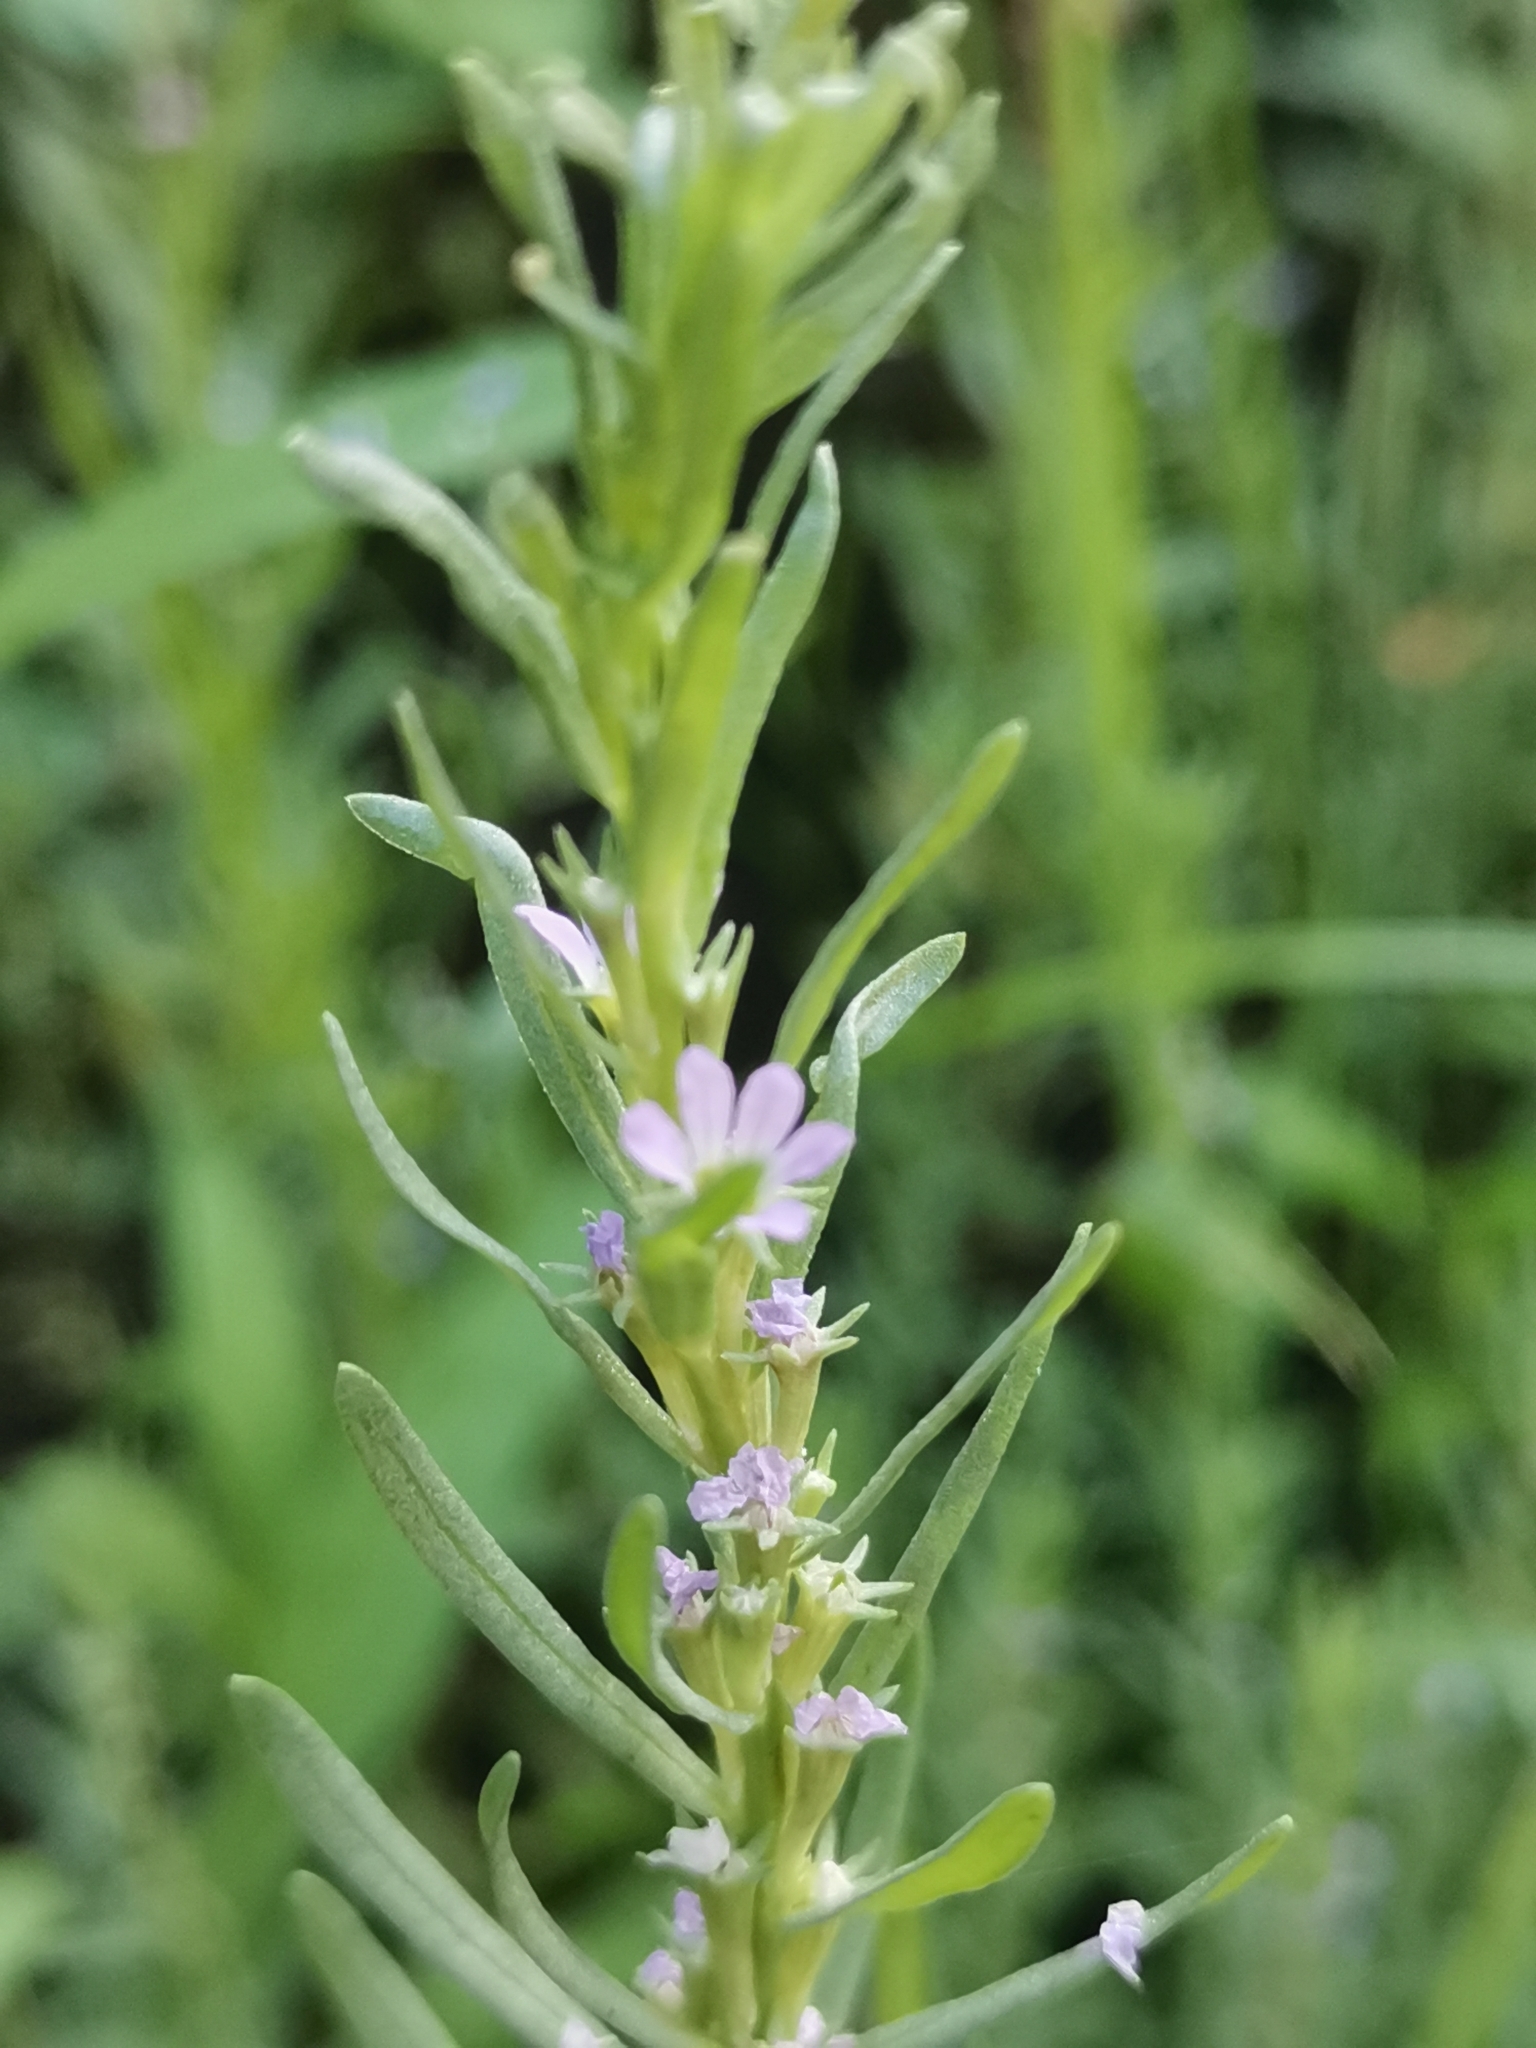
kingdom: Plantae
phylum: Tracheophyta
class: Magnoliopsida
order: Myrtales
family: Lythraceae
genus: Lythrum
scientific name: Lythrum hyssopifolia
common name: Grass-poly
